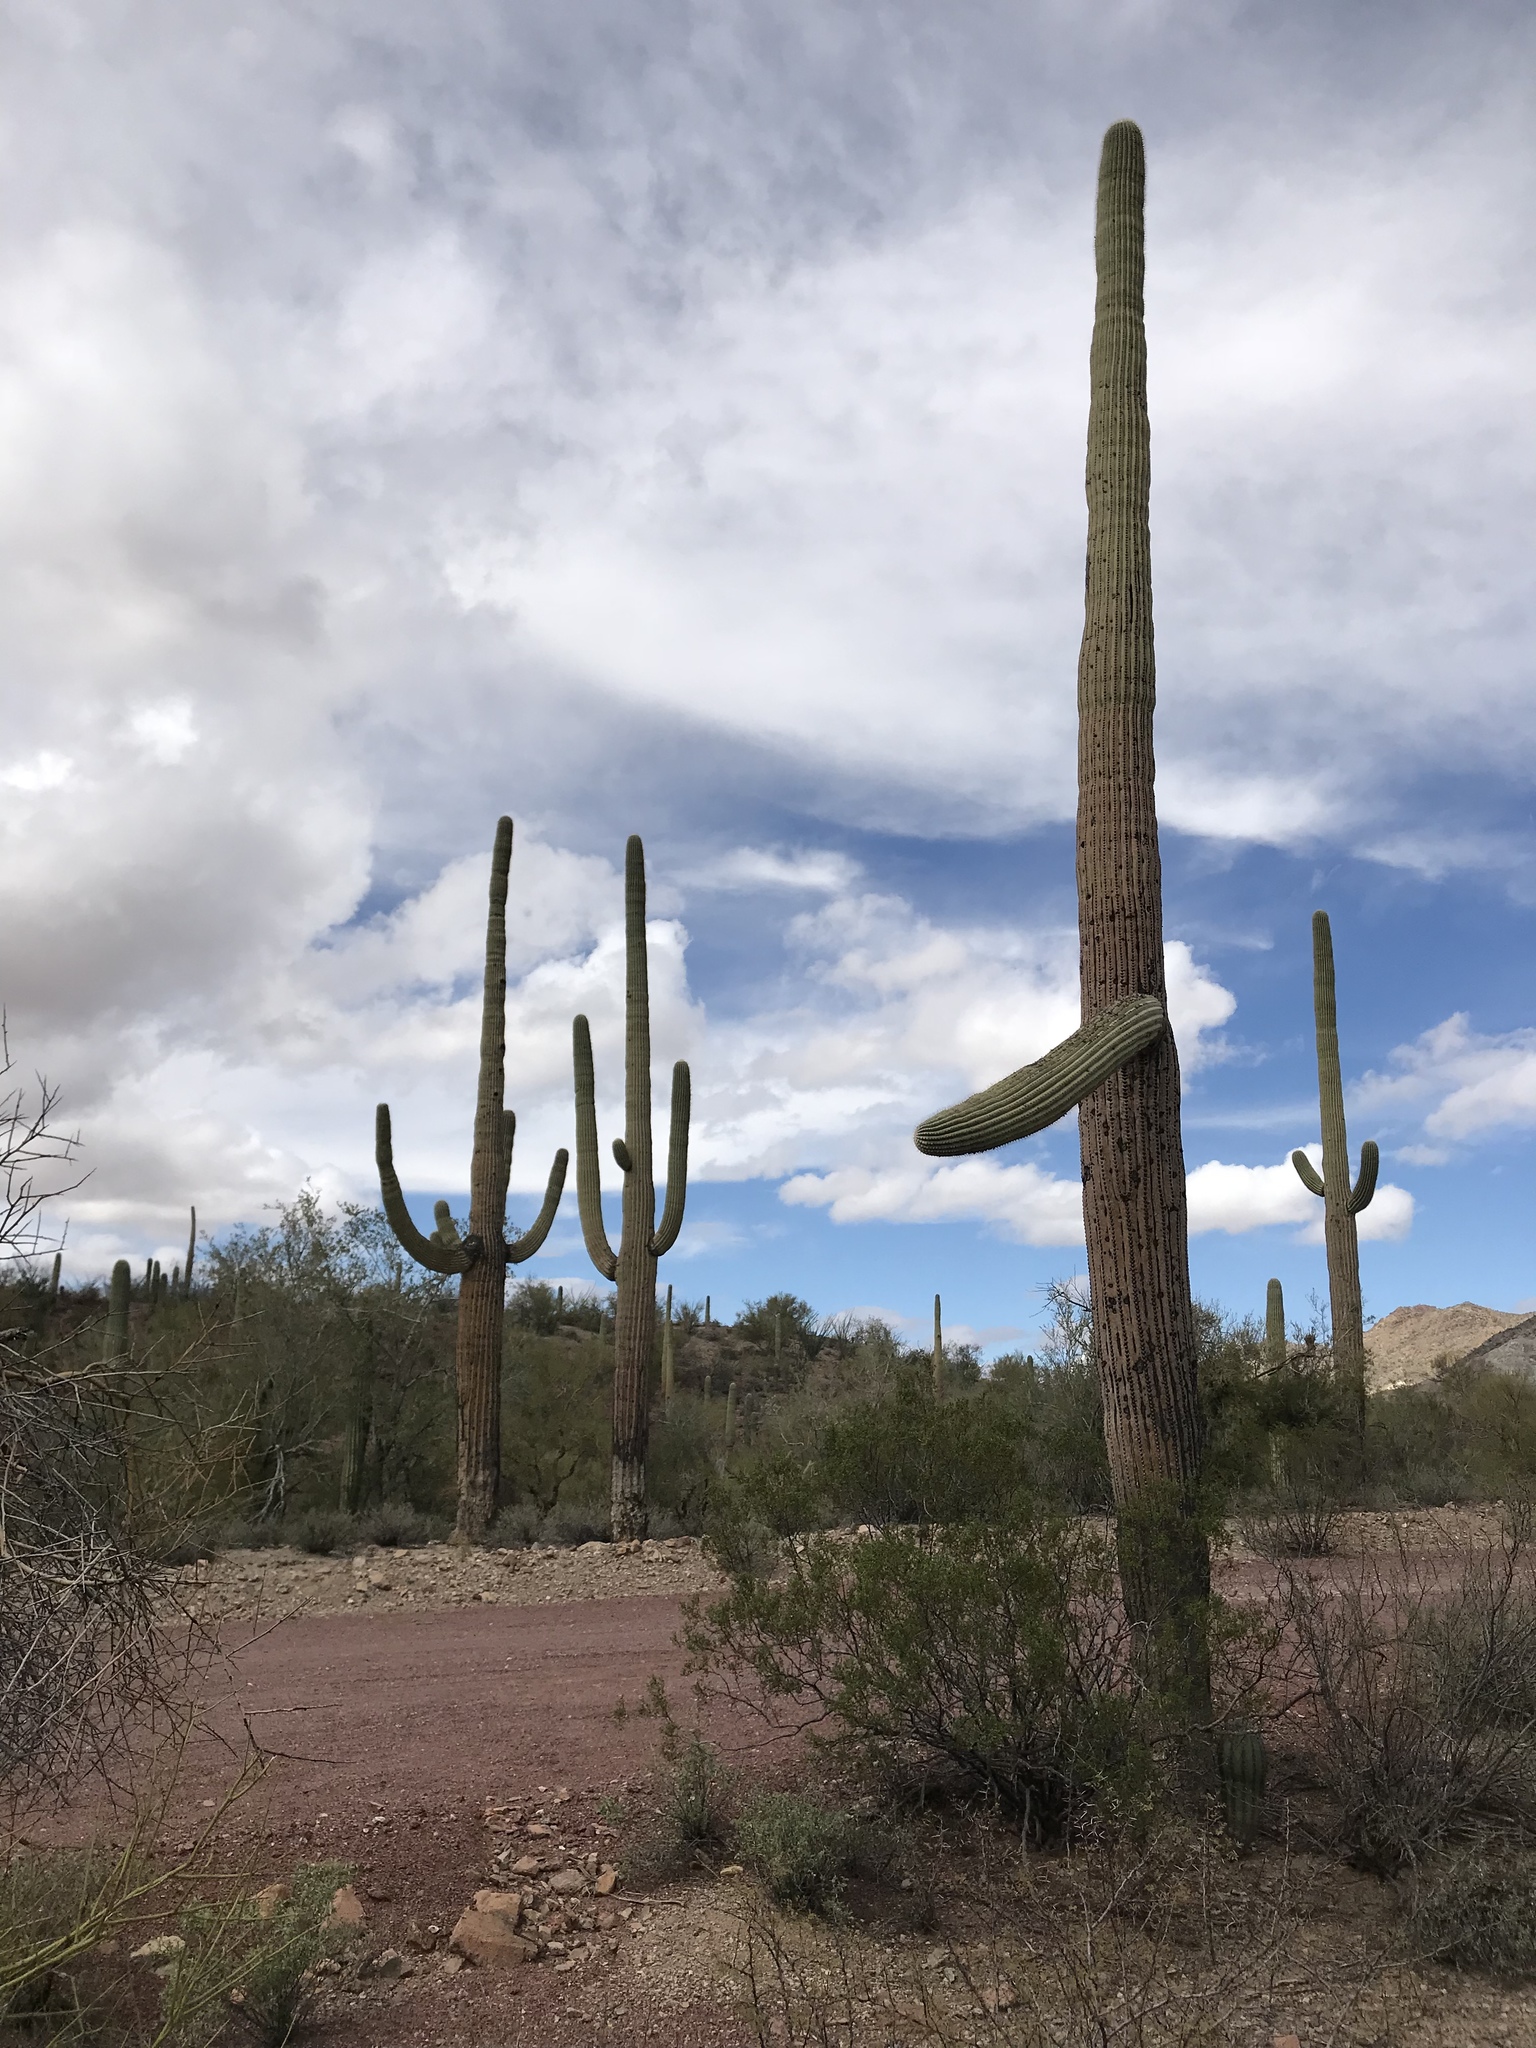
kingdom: Plantae
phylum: Tracheophyta
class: Magnoliopsida
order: Caryophyllales
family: Cactaceae
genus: Carnegiea
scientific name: Carnegiea gigantea
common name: Saguaro
